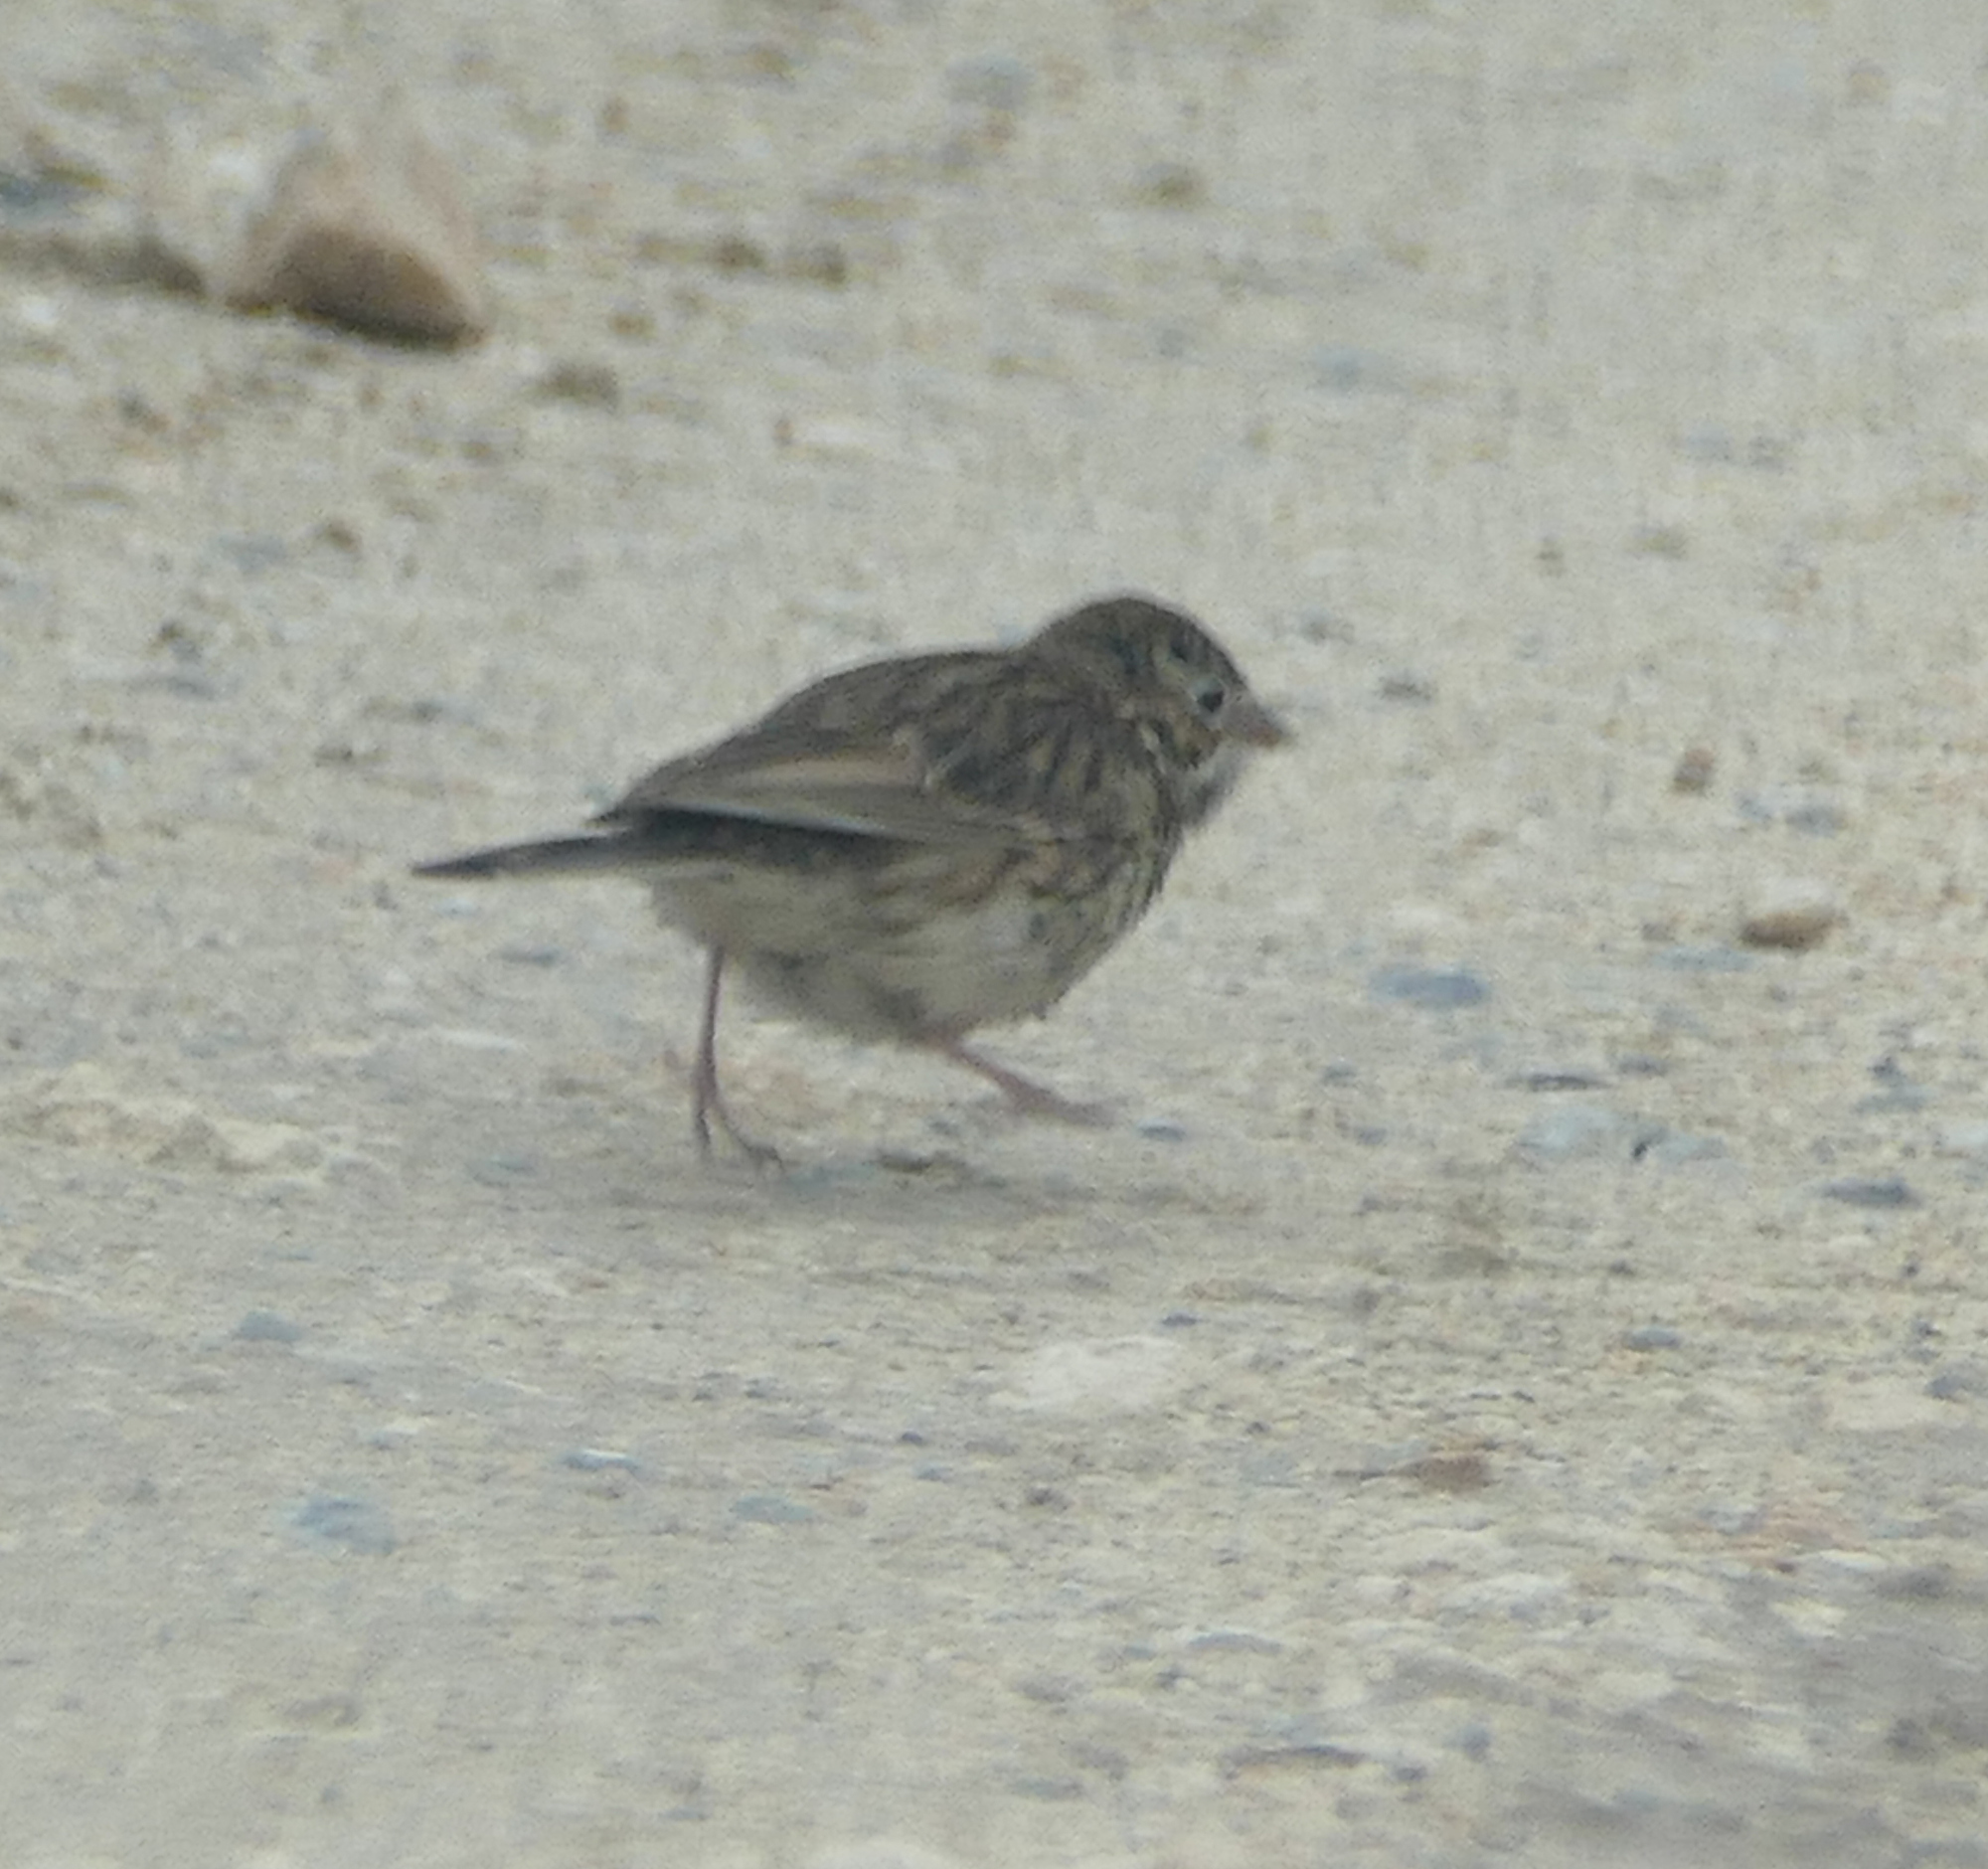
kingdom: Animalia
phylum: Chordata
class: Aves
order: Passeriformes
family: Passerellidae
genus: Pooecetes
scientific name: Pooecetes gramineus
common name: Vesper sparrow
